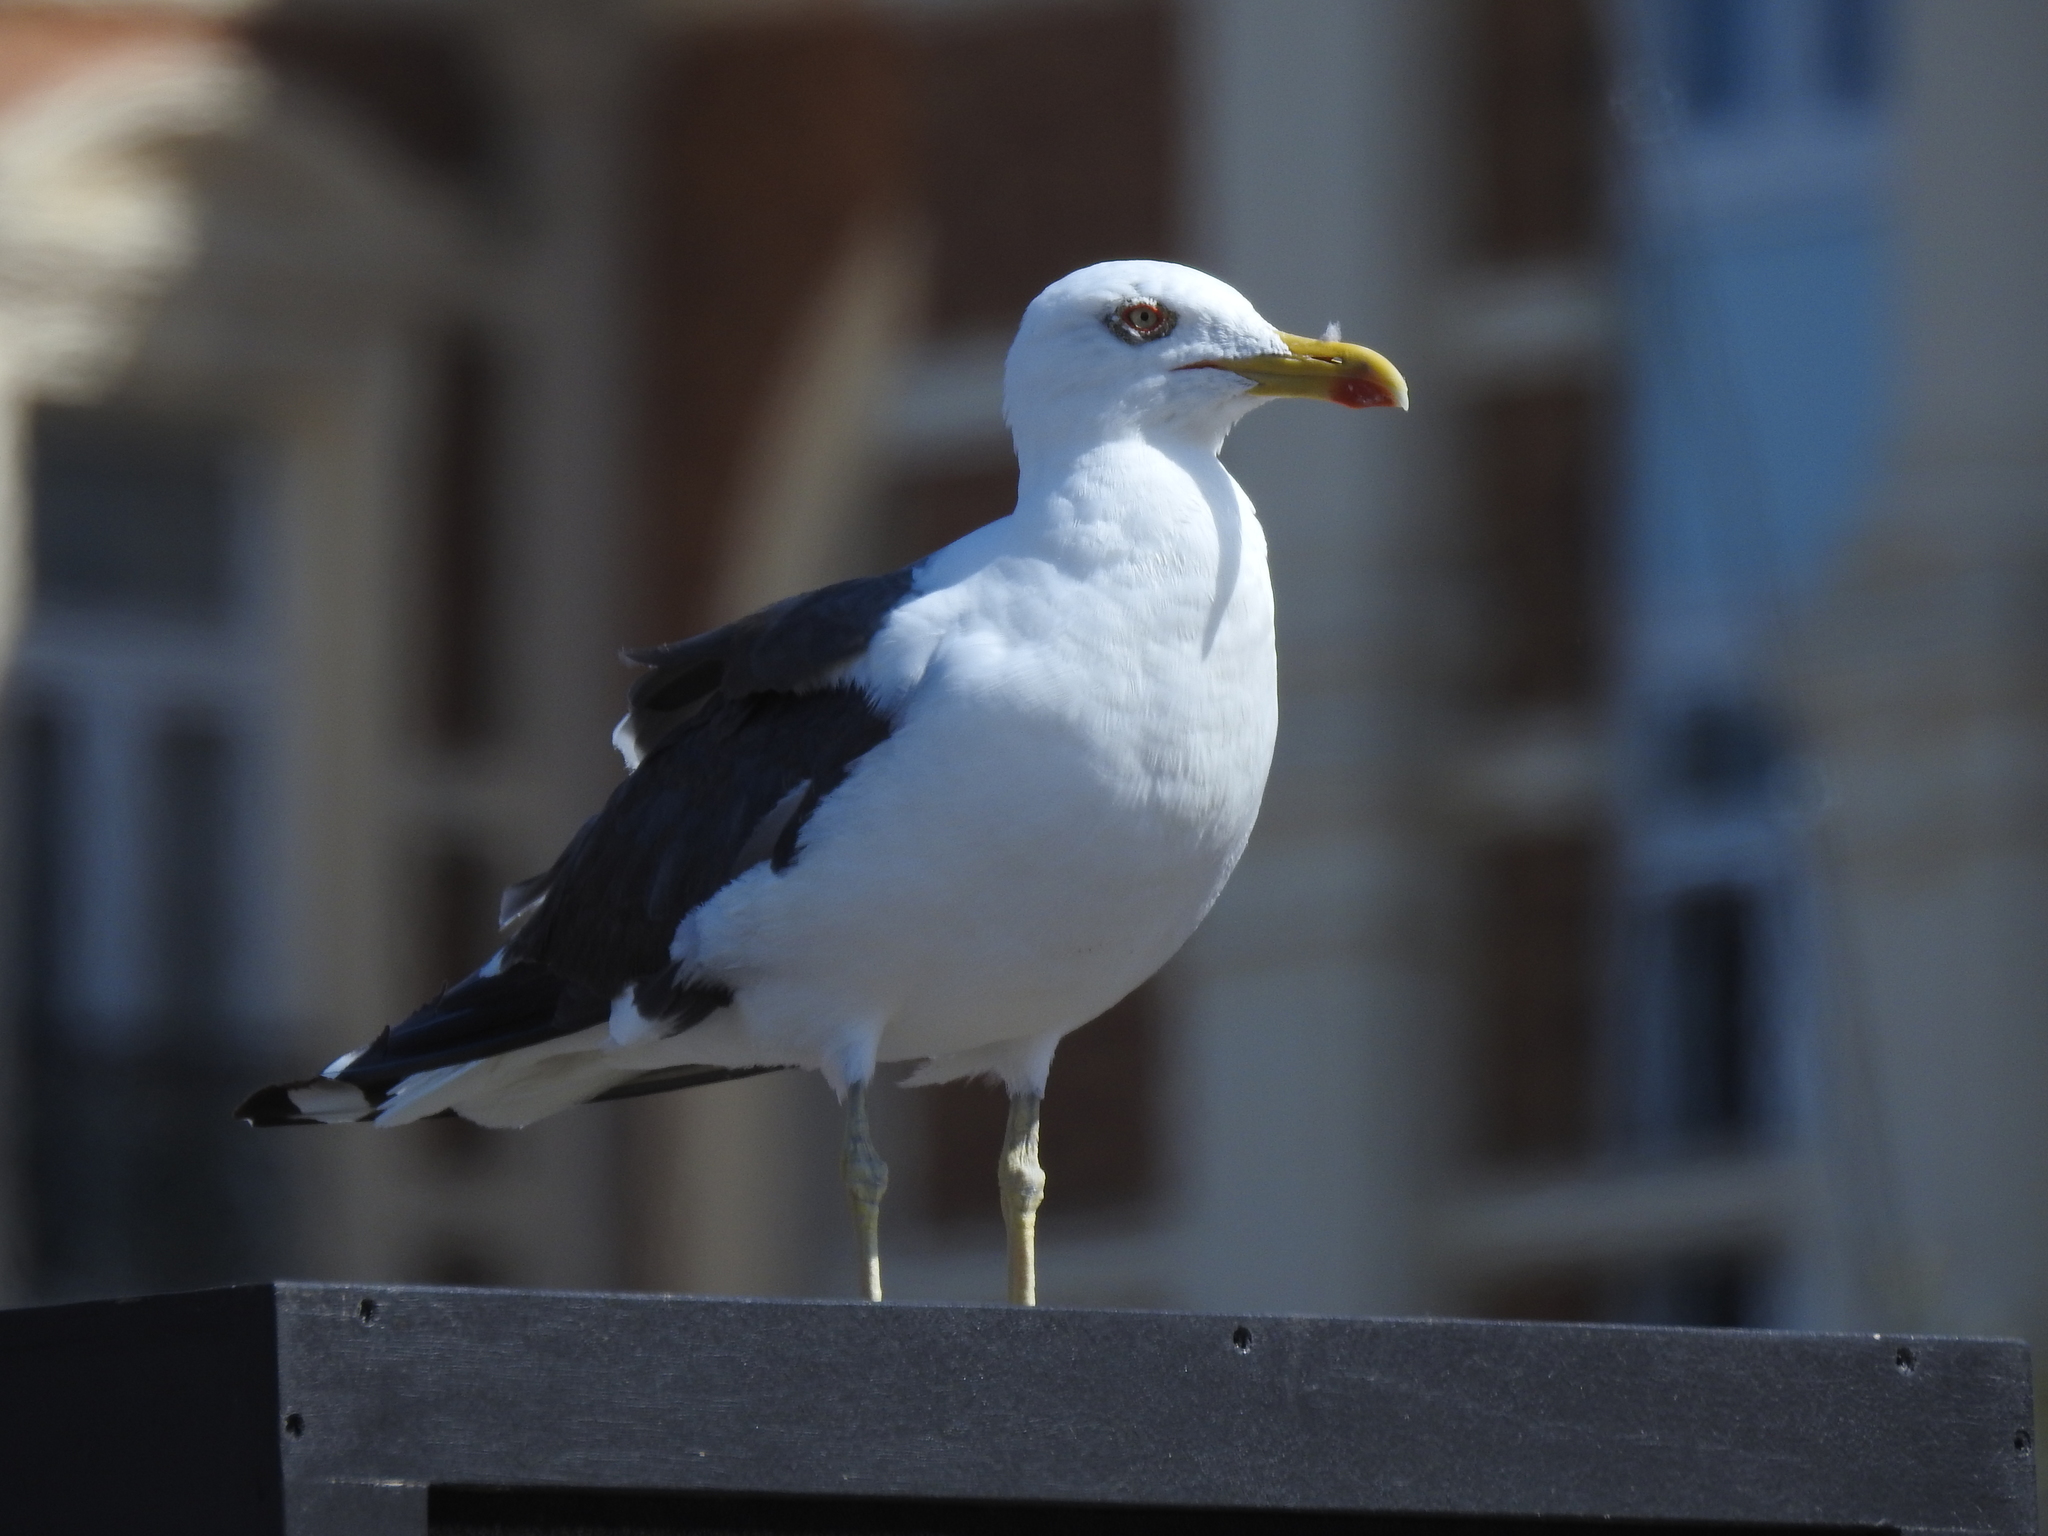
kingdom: Animalia
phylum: Chordata
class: Aves
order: Charadriiformes
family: Laridae
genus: Larus
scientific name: Larus fuscus
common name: Lesser black-backed gull
